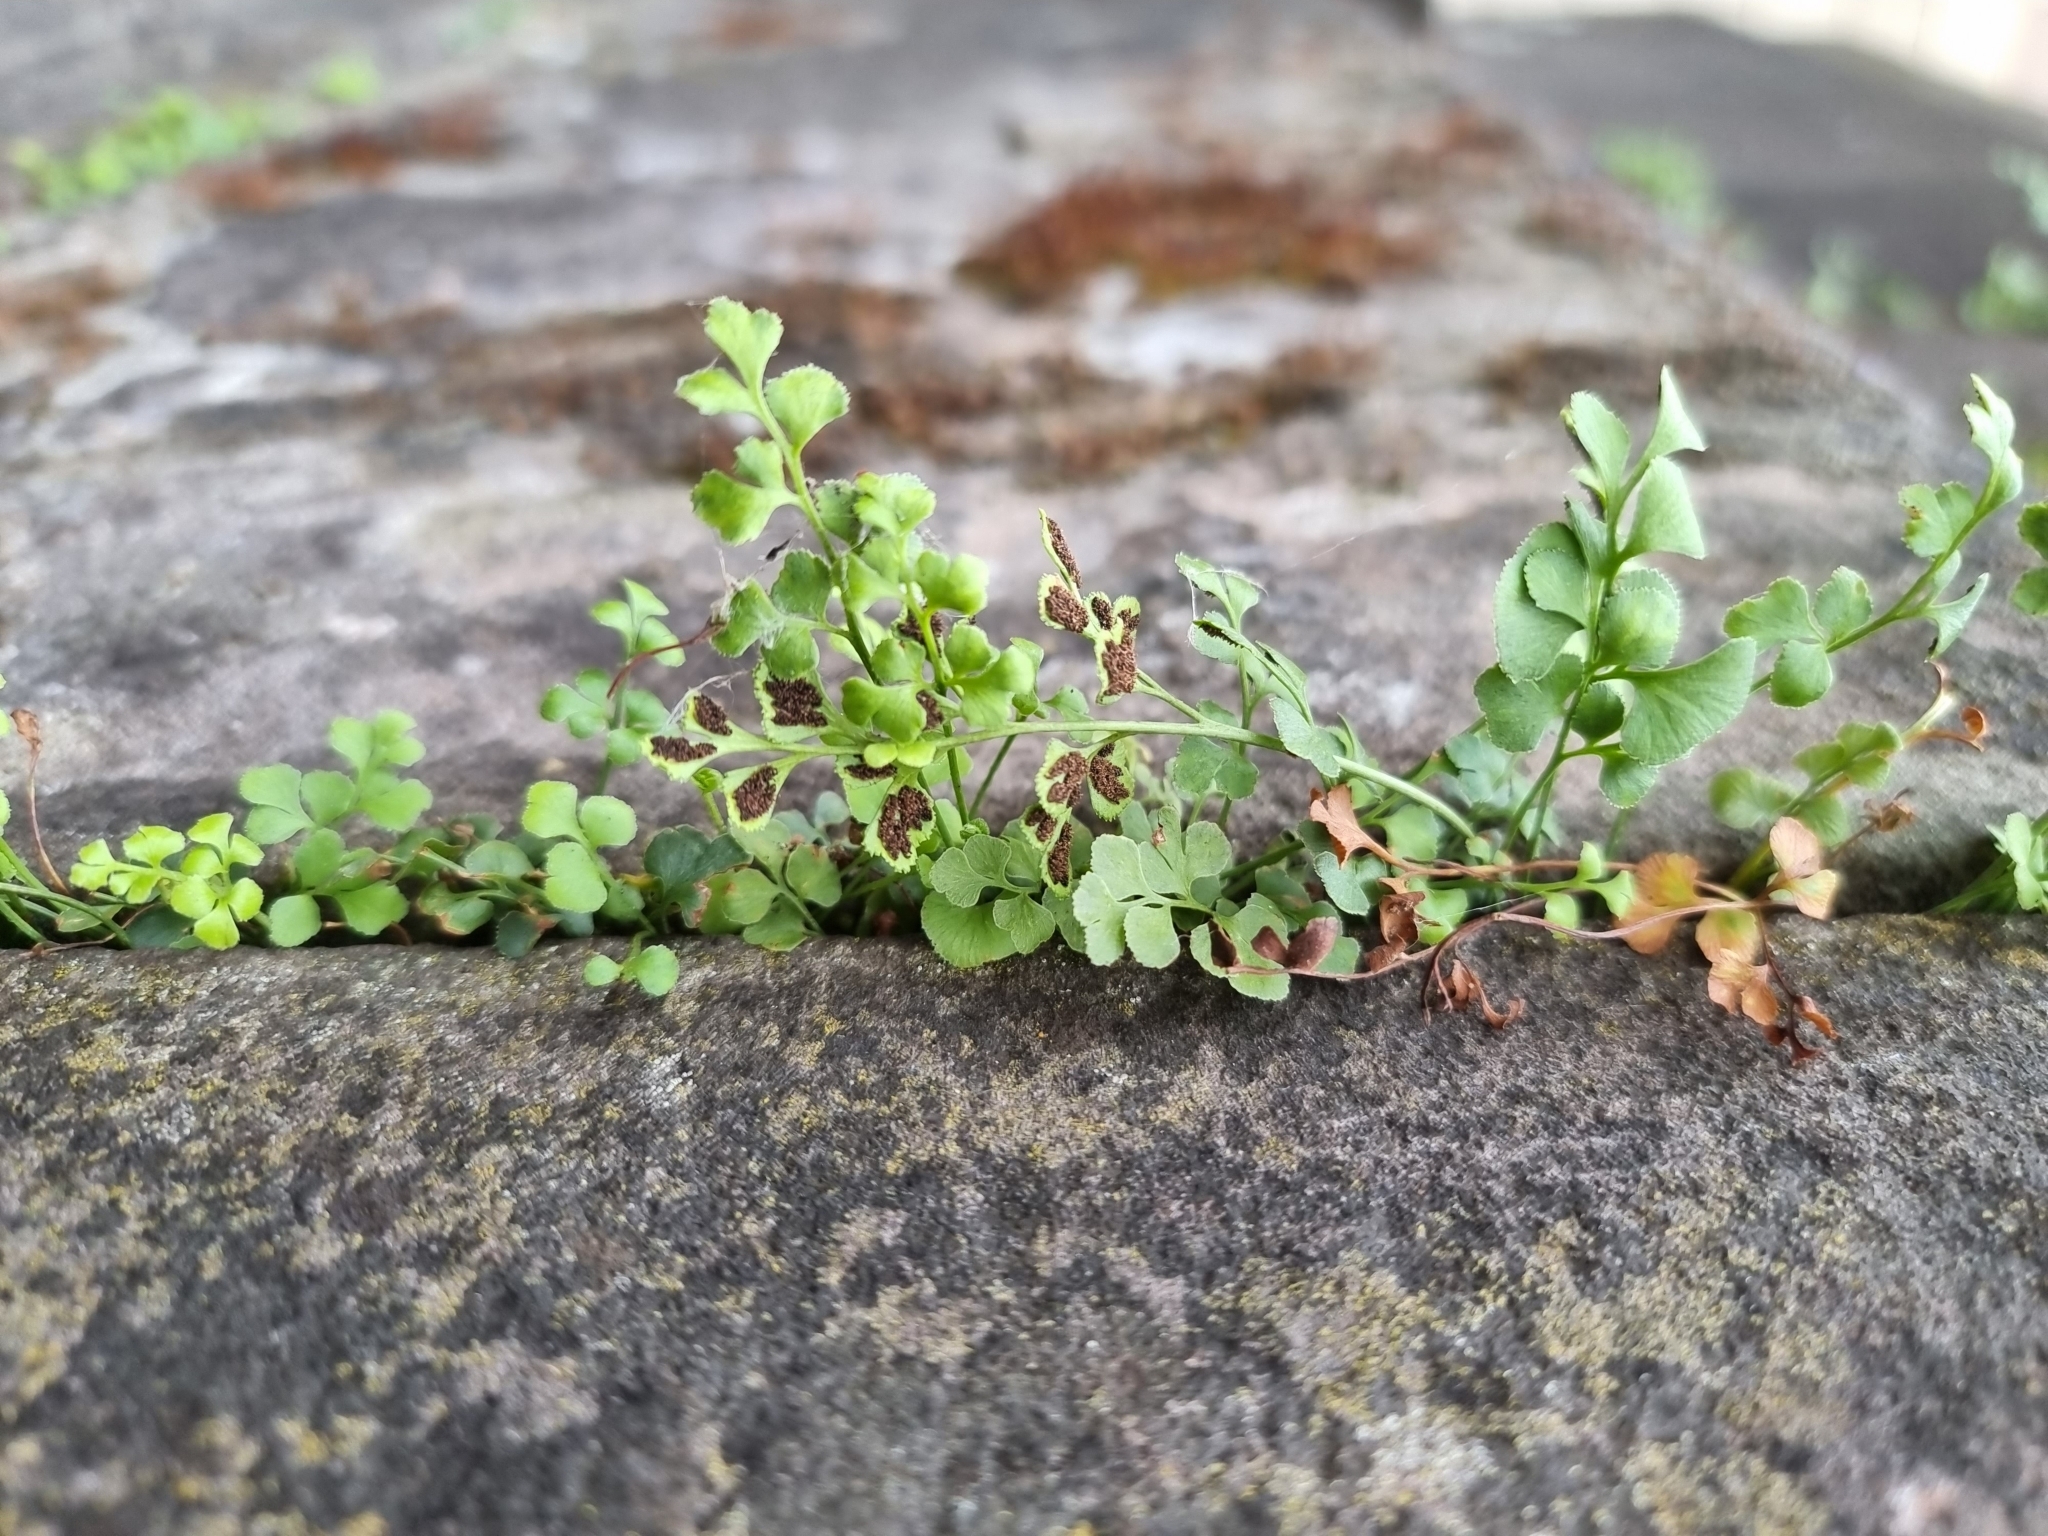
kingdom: Plantae
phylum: Tracheophyta
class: Polypodiopsida
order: Polypodiales
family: Aspleniaceae
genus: Asplenium
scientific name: Asplenium ruta-muraria
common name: Wall-rue
